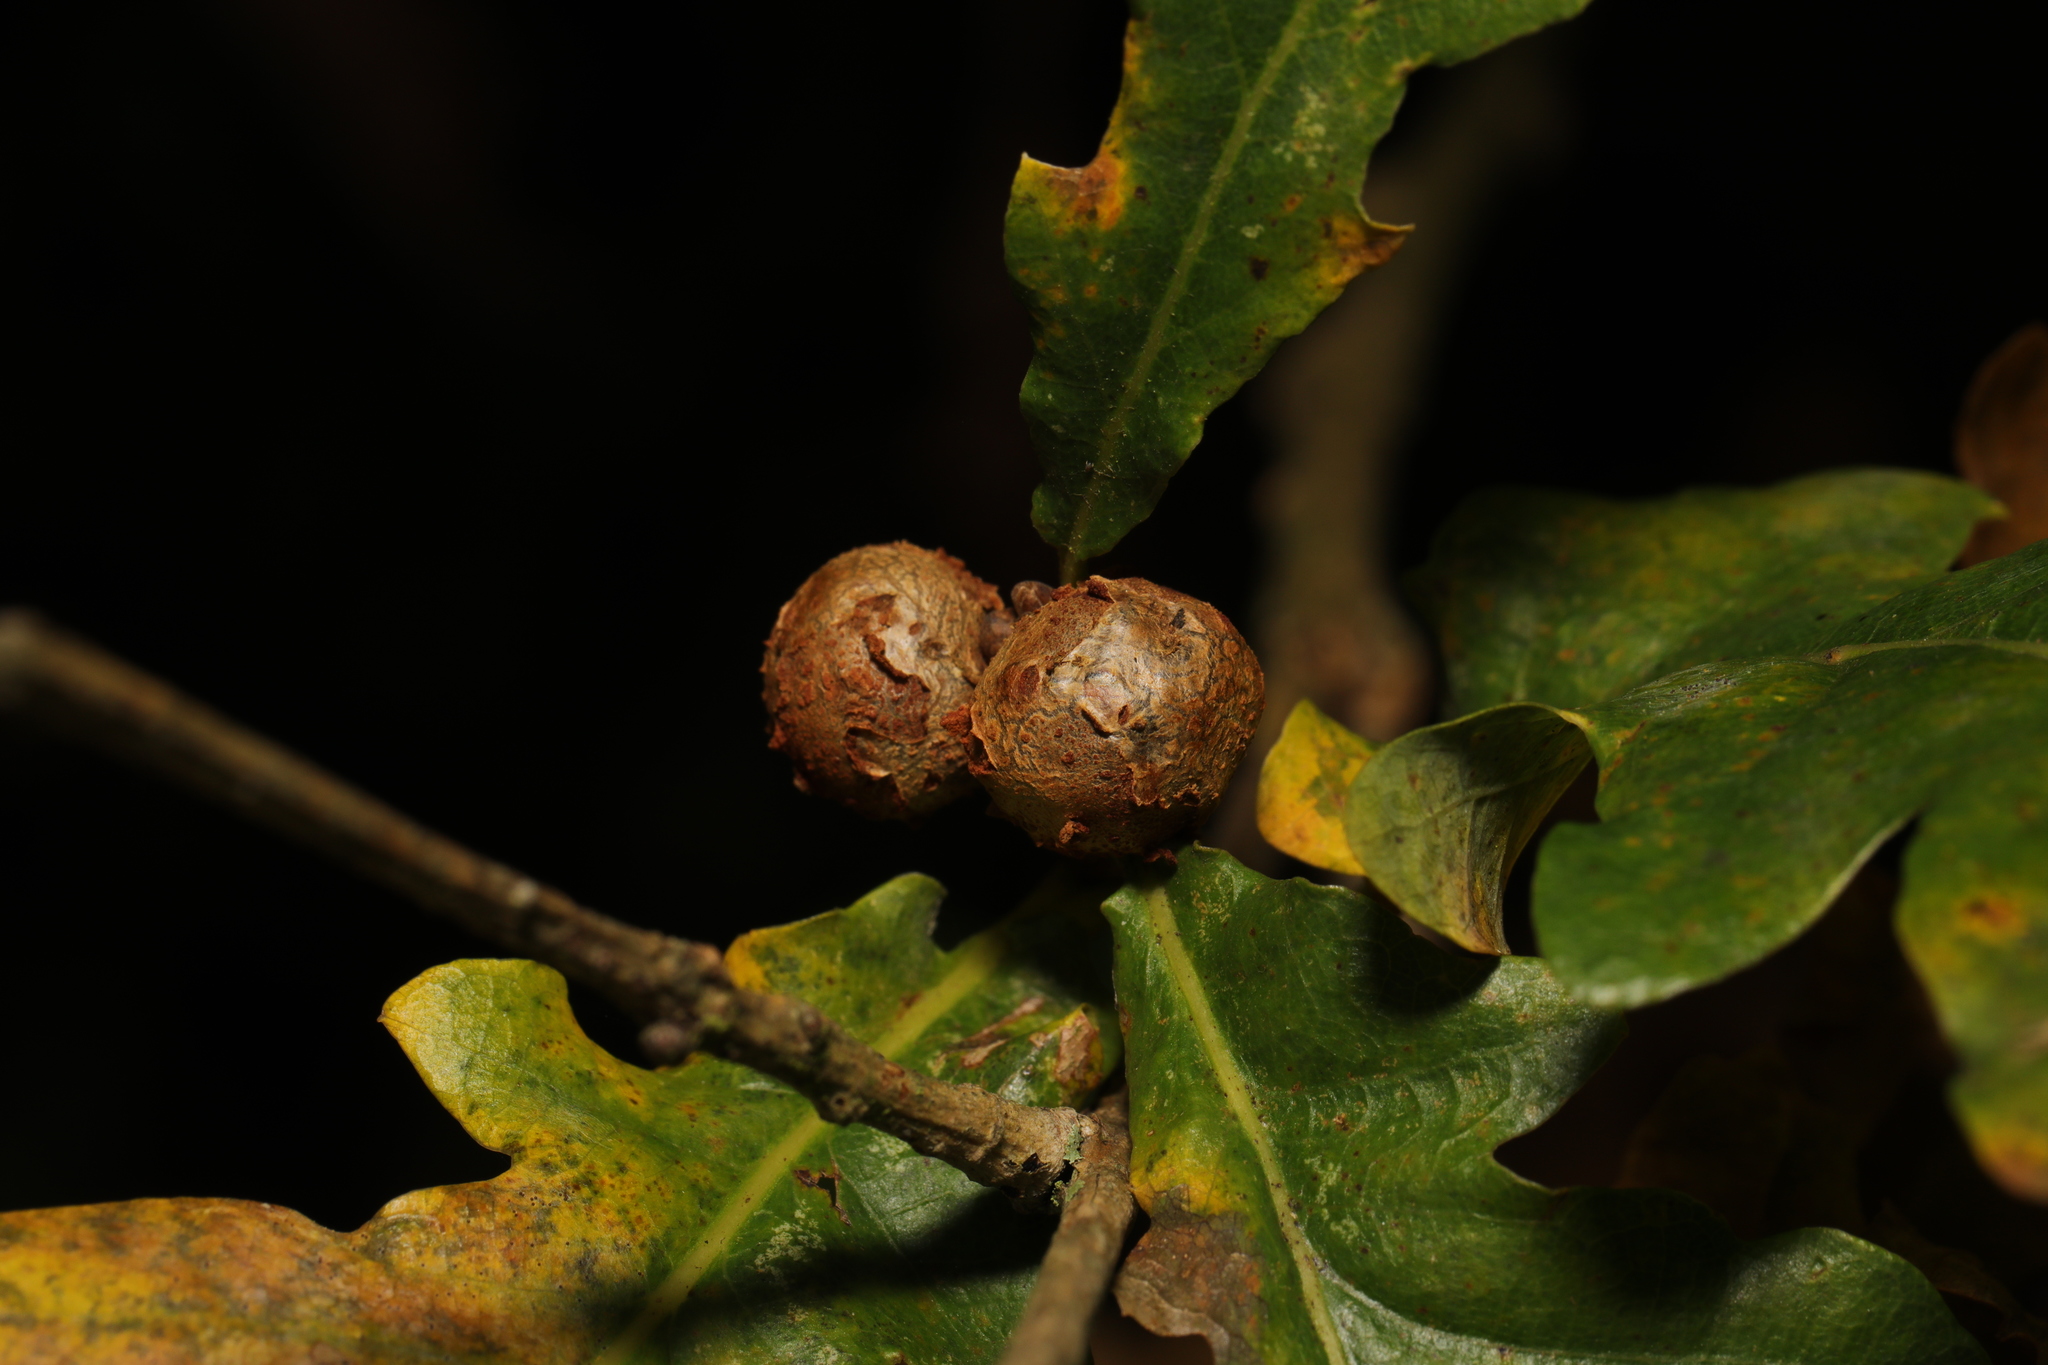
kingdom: Animalia
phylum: Arthropoda
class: Insecta
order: Hymenoptera
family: Cynipidae
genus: Andricus
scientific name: Andricus lignicolus
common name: Cola-nut gall
